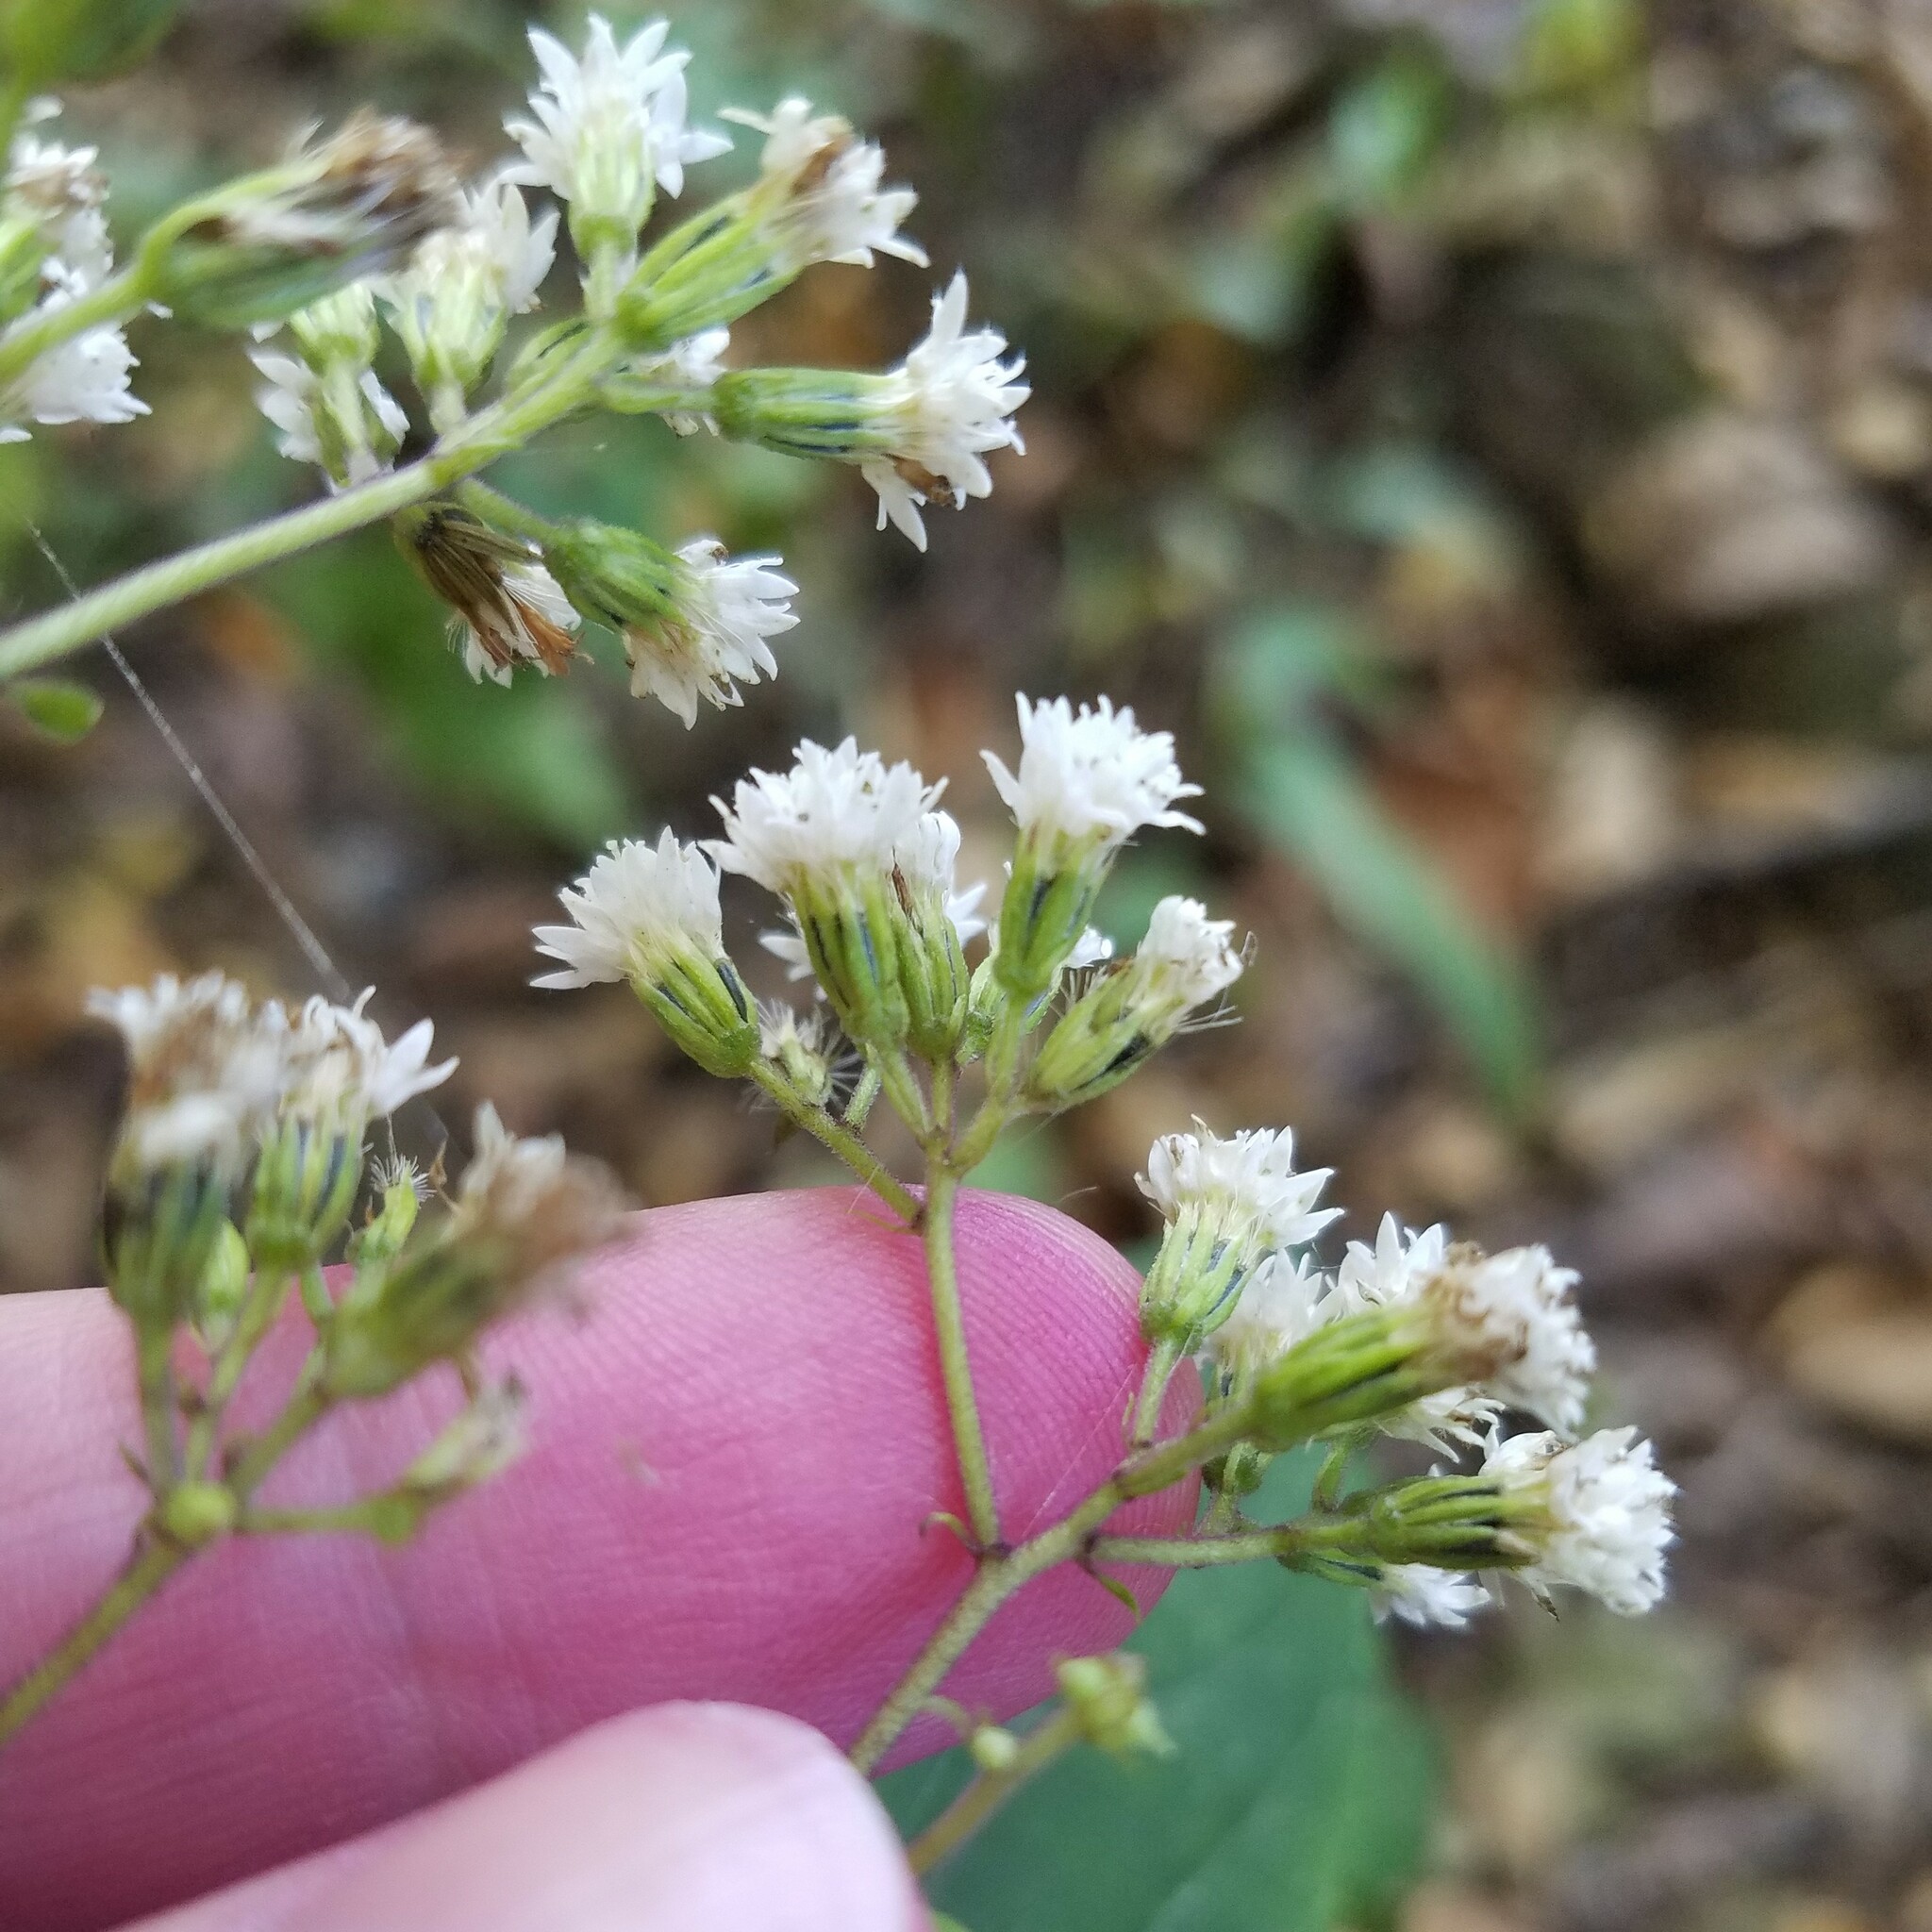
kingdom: Plantae
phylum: Tracheophyta
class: Magnoliopsida
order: Asterales
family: Asteraceae
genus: Ageratina
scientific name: Ageratina altissima
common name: White snakeroot
